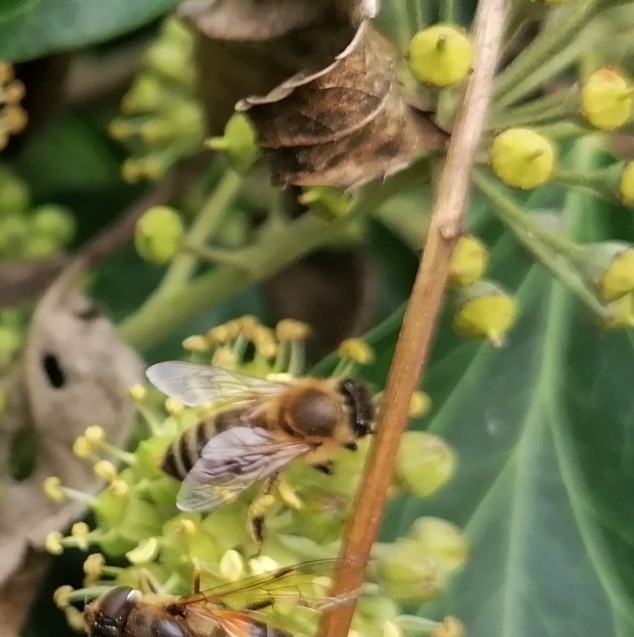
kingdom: Animalia
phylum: Arthropoda
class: Insecta
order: Hymenoptera
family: Apidae
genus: Apis
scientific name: Apis mellifera
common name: Honey bee
